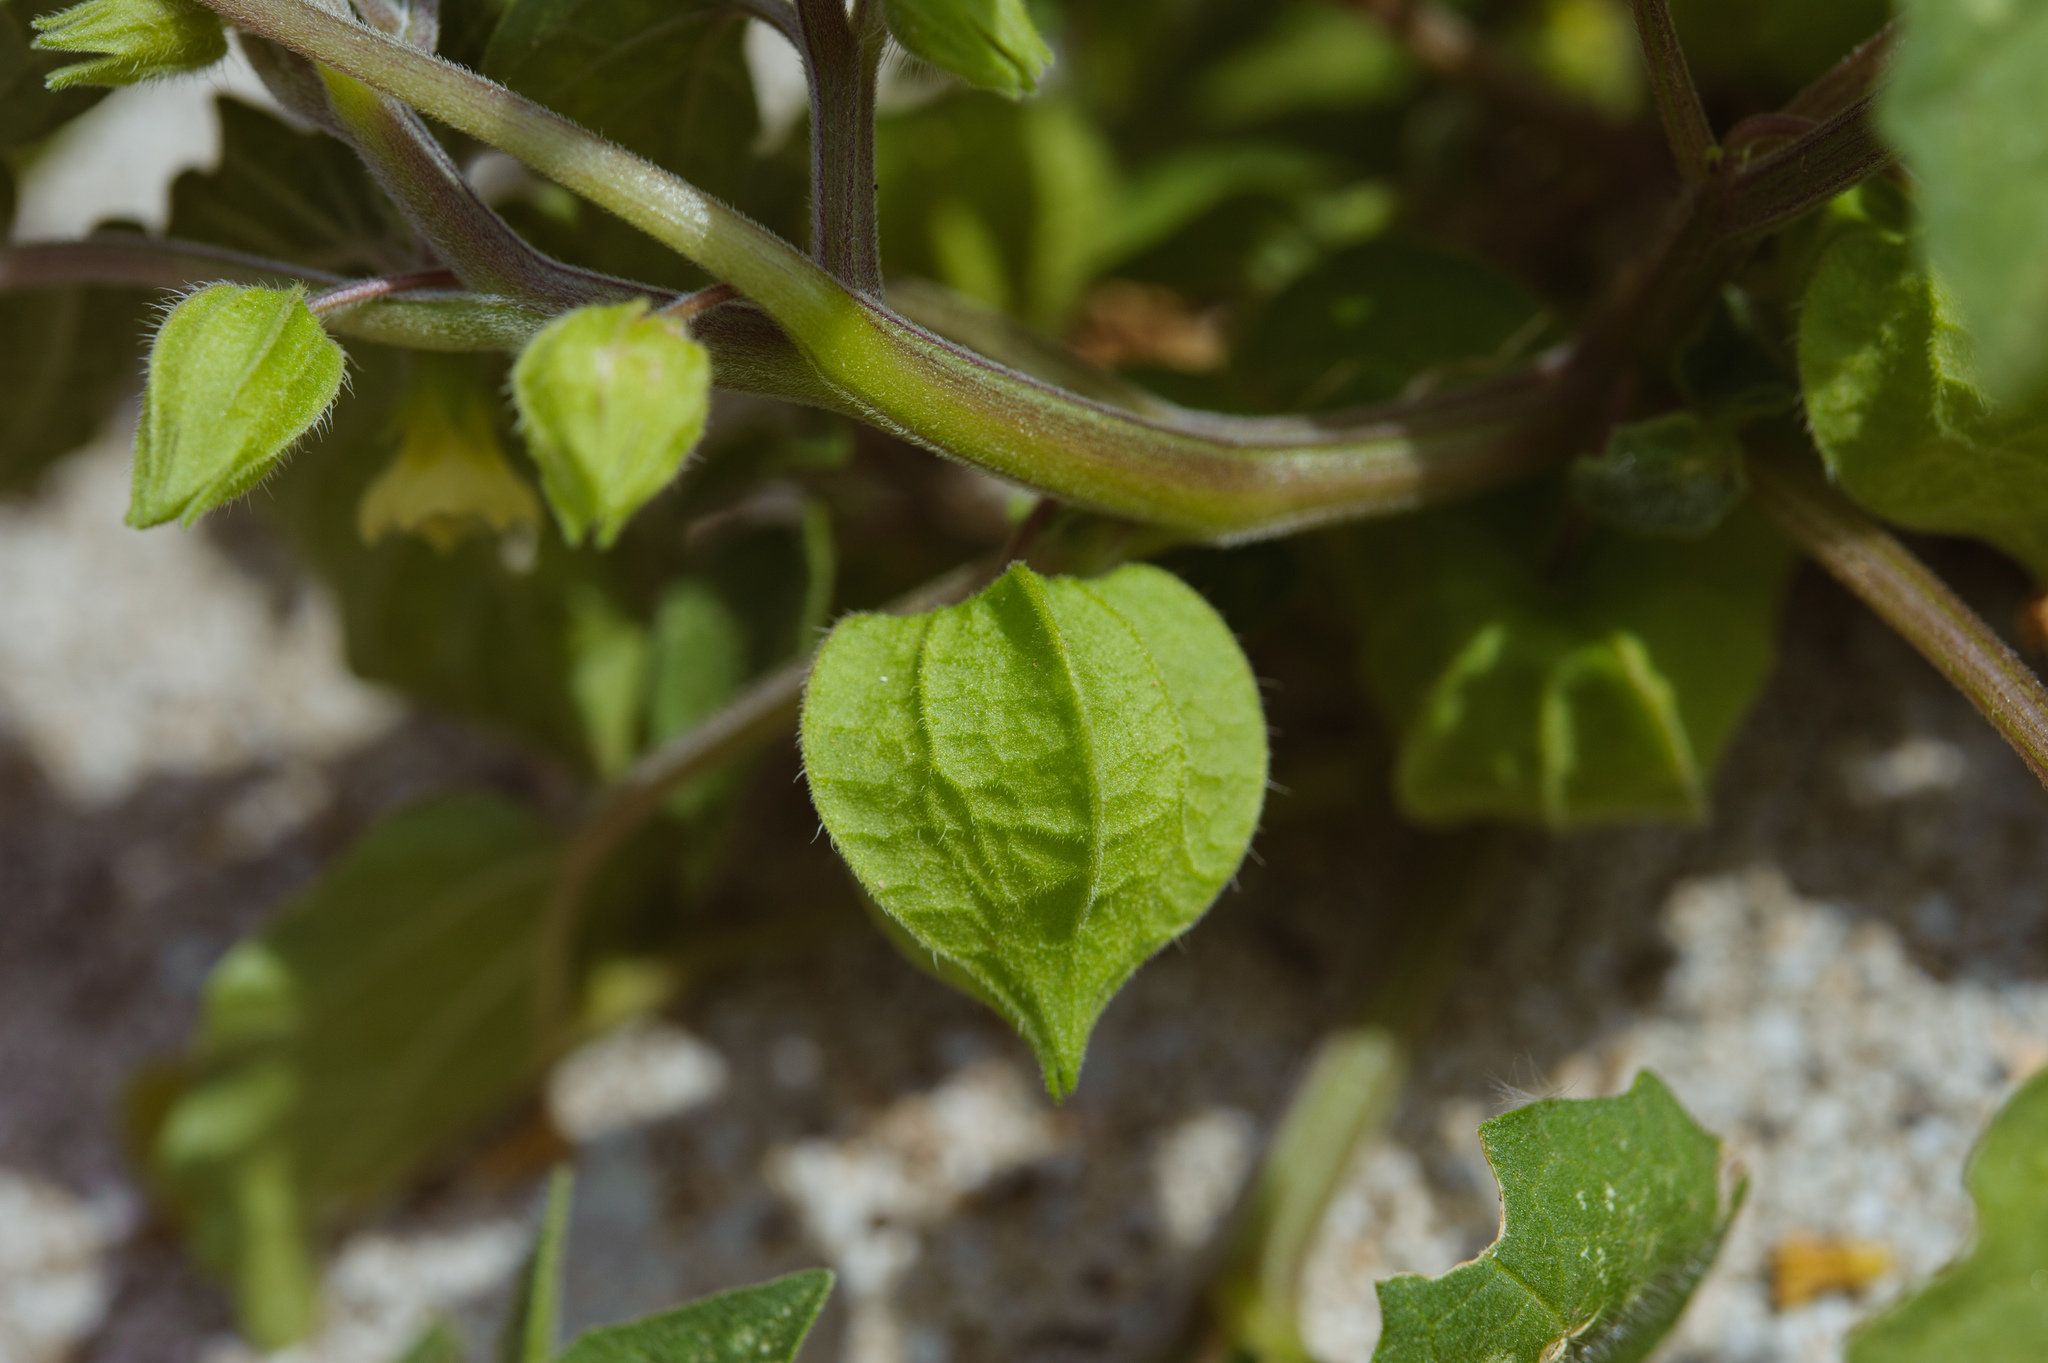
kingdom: Plantae
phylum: Tracheophyta
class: Magnoliopsida
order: Solanales
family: Solanaceae
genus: Physalis
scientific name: Physalis peruviana
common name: Cape-gooseberry
